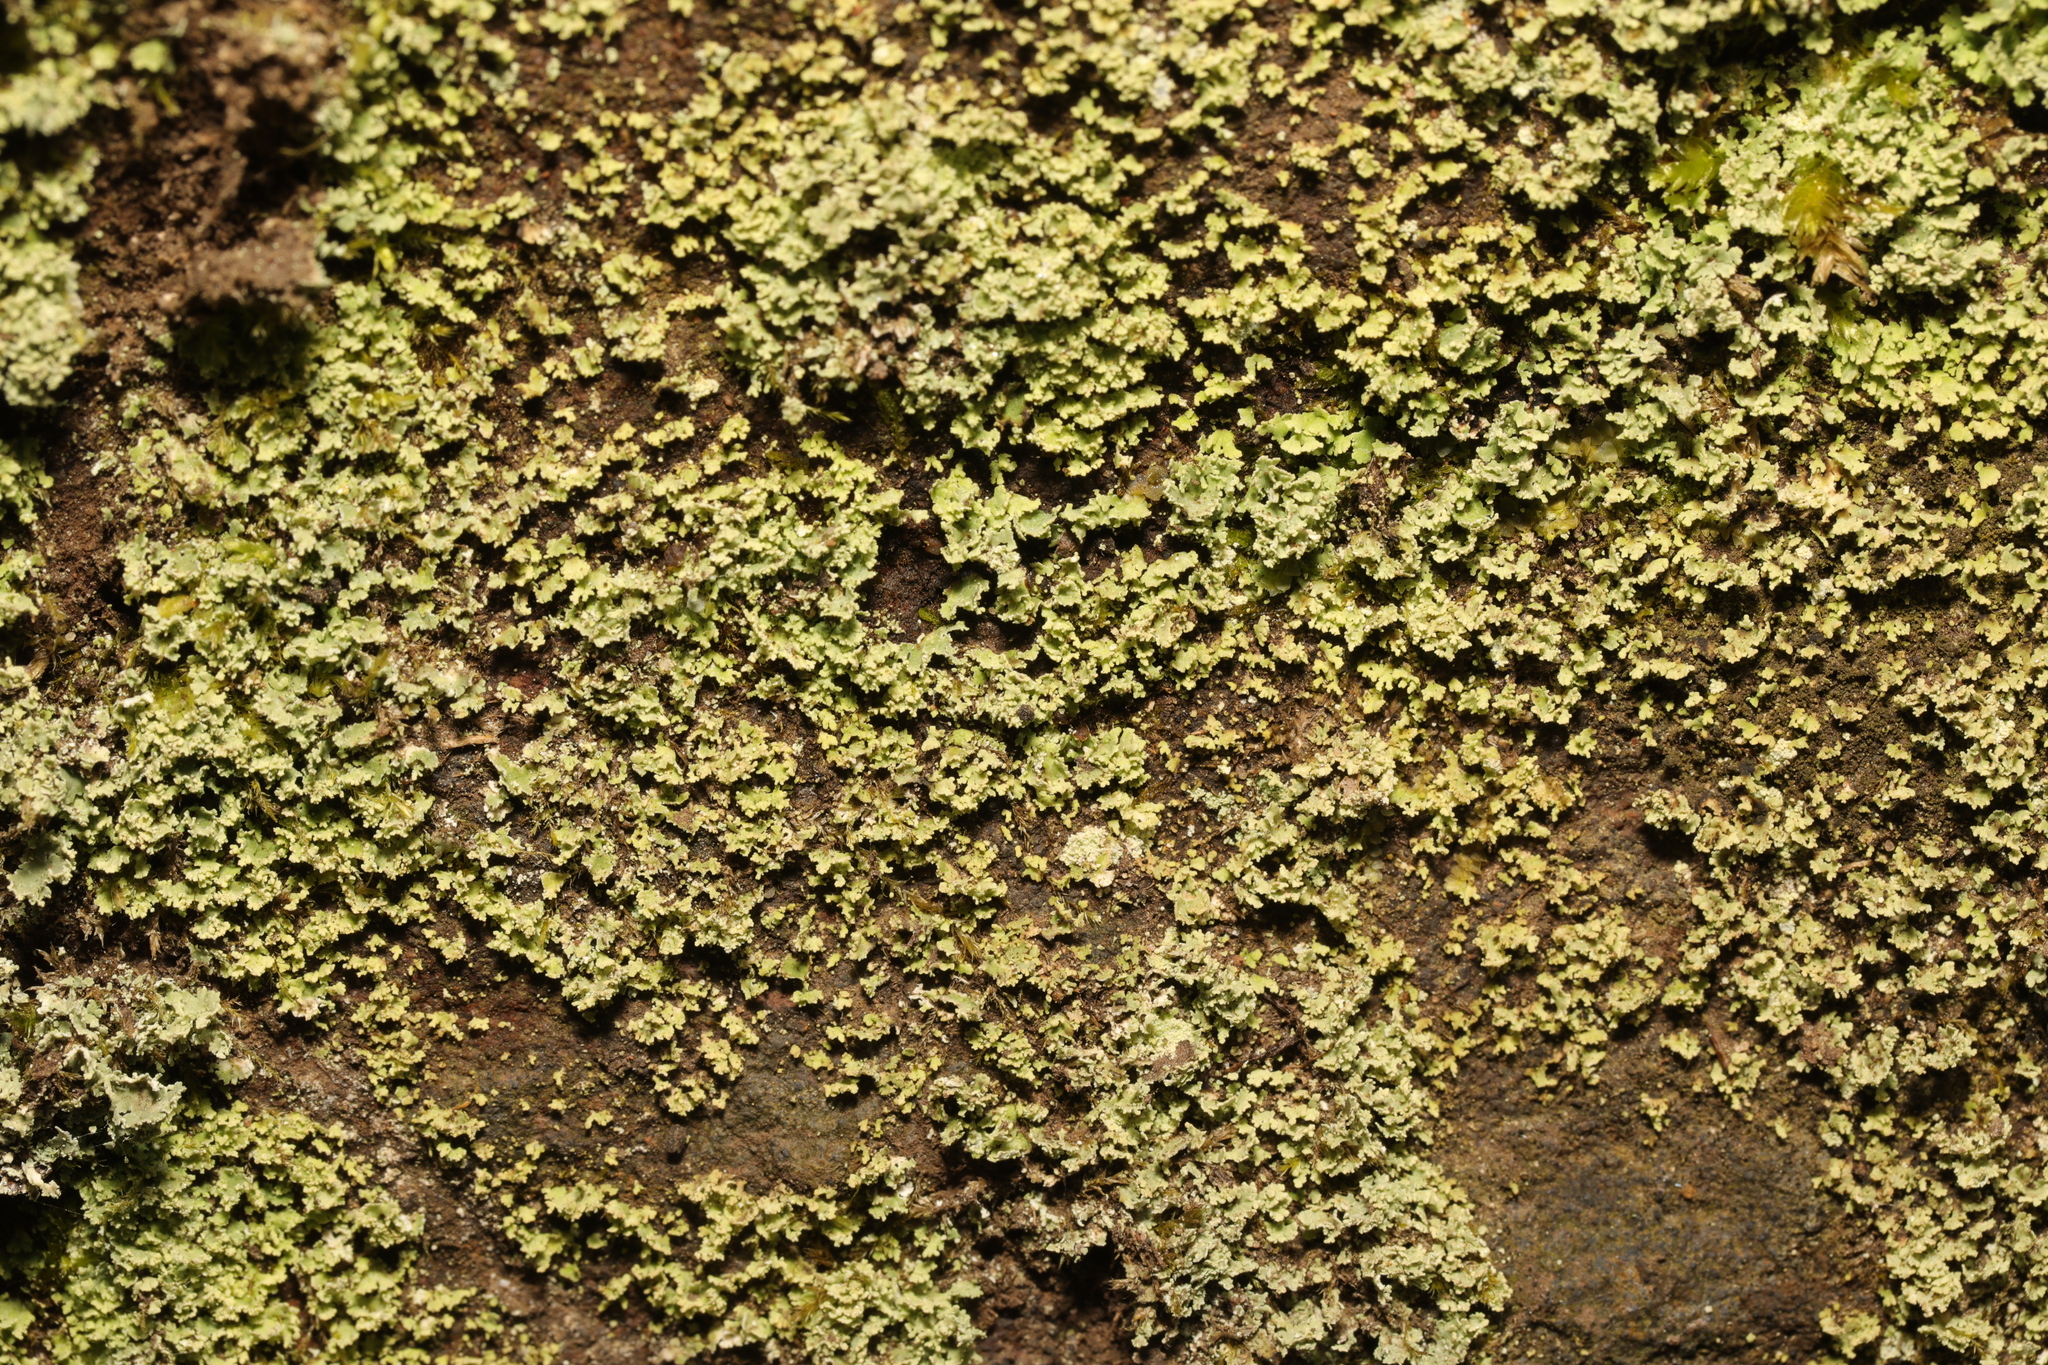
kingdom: Fungi
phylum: Ascomycota
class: Lecanoromycetes
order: Caliciales
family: Physciaceae
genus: Physcia
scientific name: Physcia tenella
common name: Fringed rosette lichen
